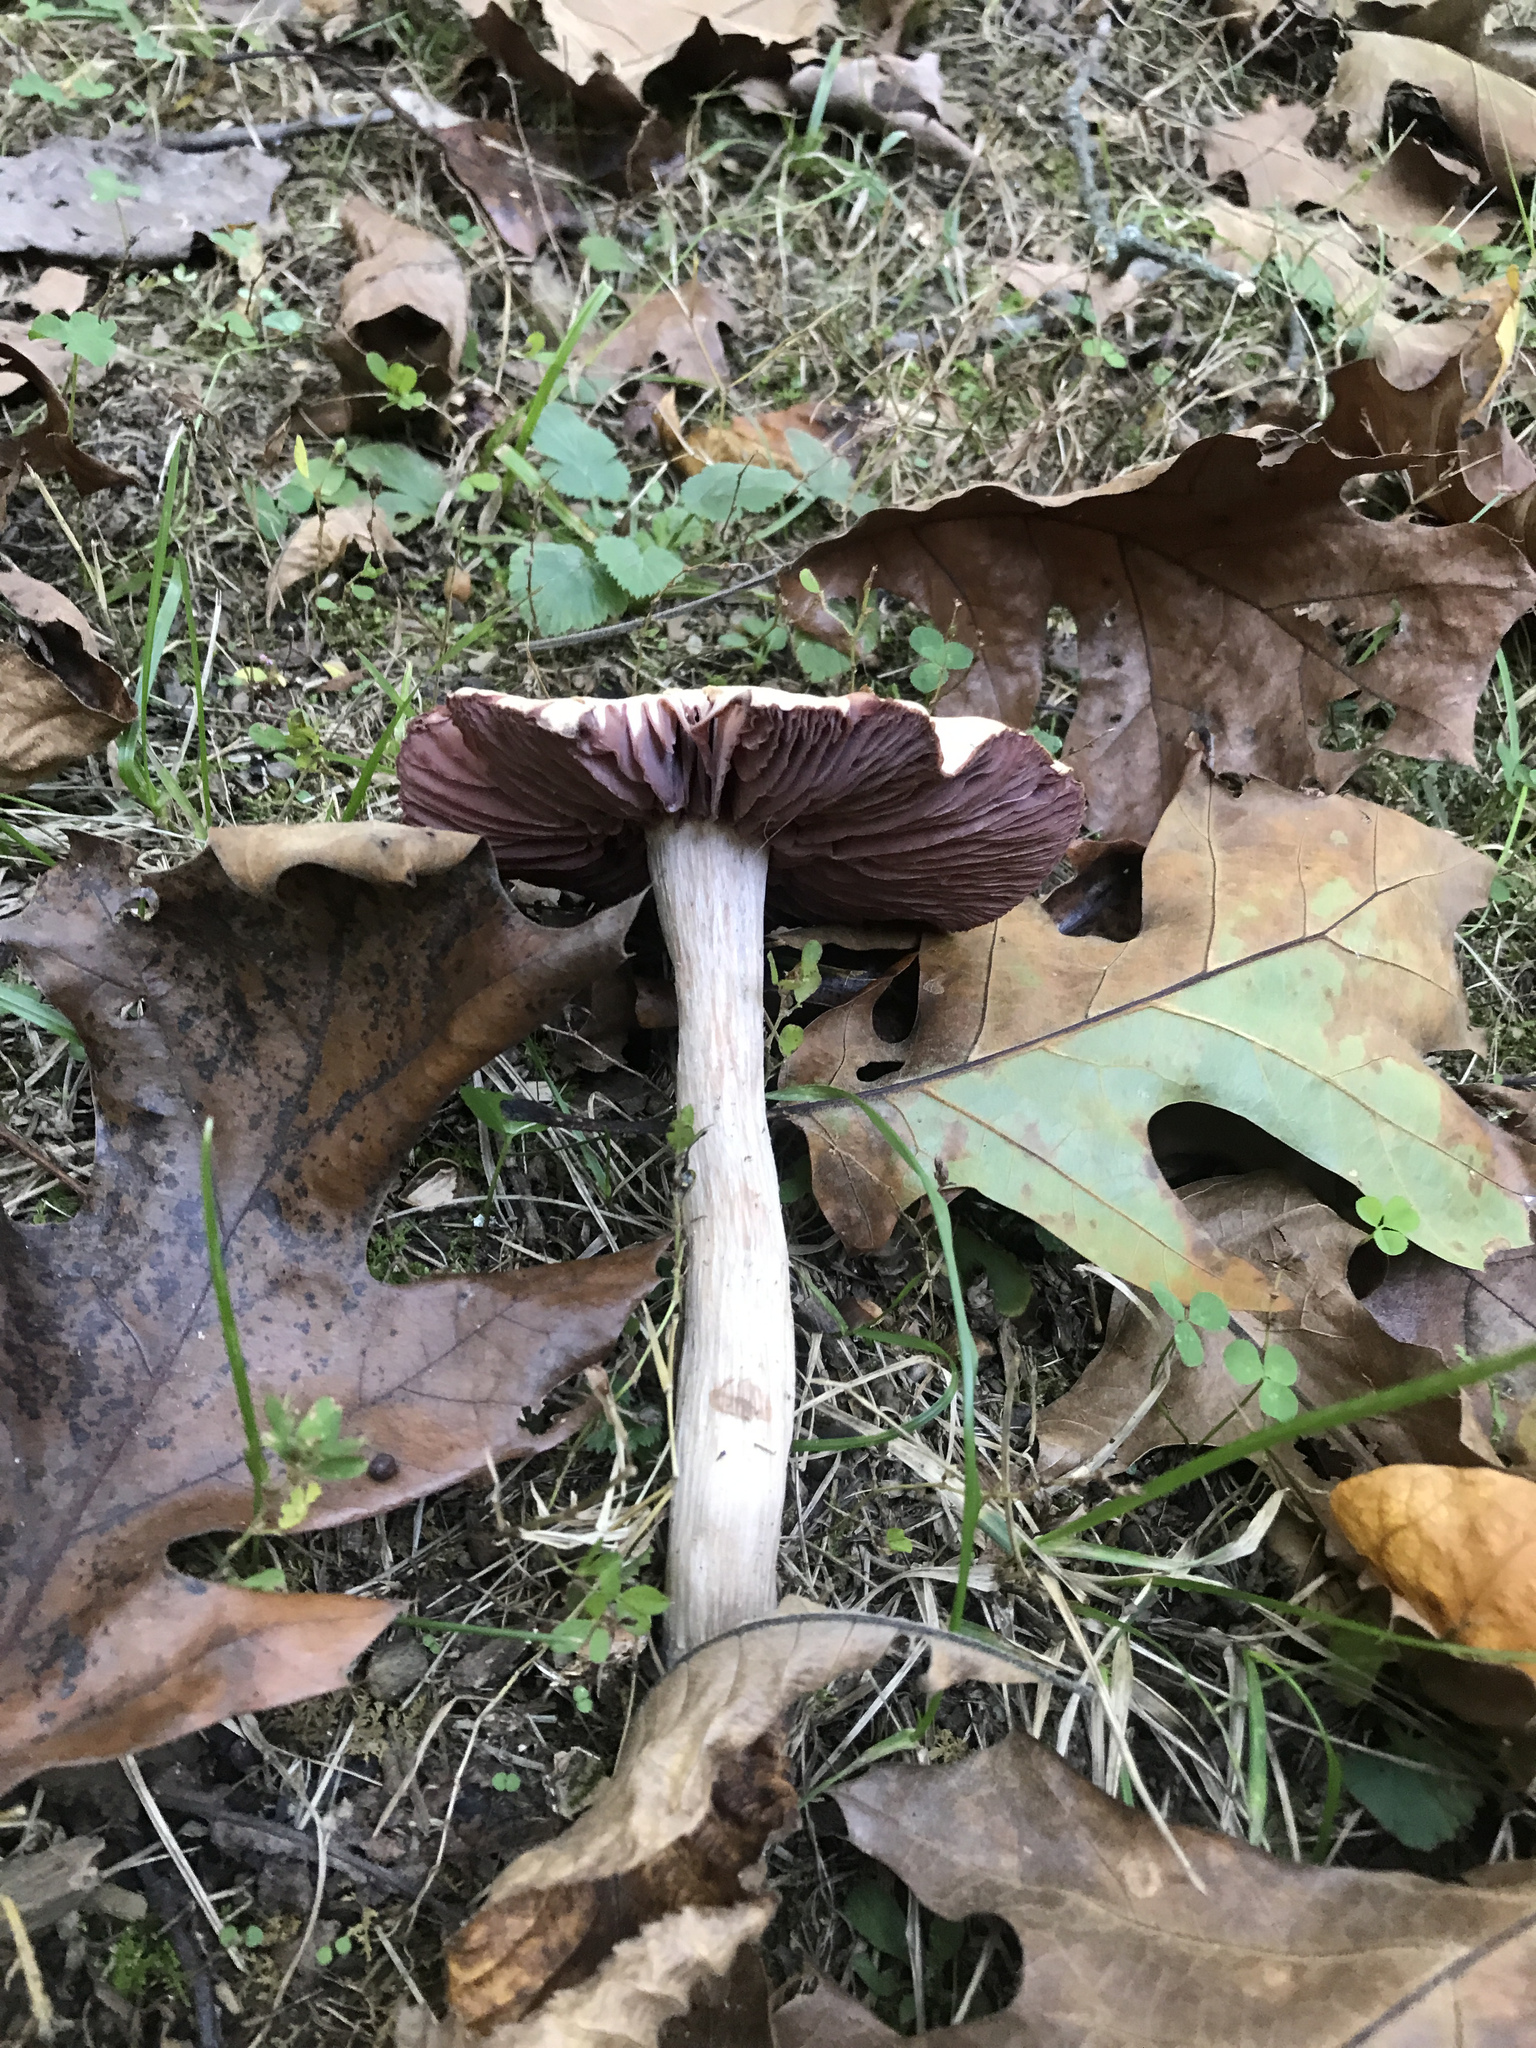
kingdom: Fungi
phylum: Basidiomycota
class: Agaricomycetes
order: Agaricales
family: Hydnangiaceae
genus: Laccaria
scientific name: Laccaria ochropurpurea
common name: Purple laccaria
